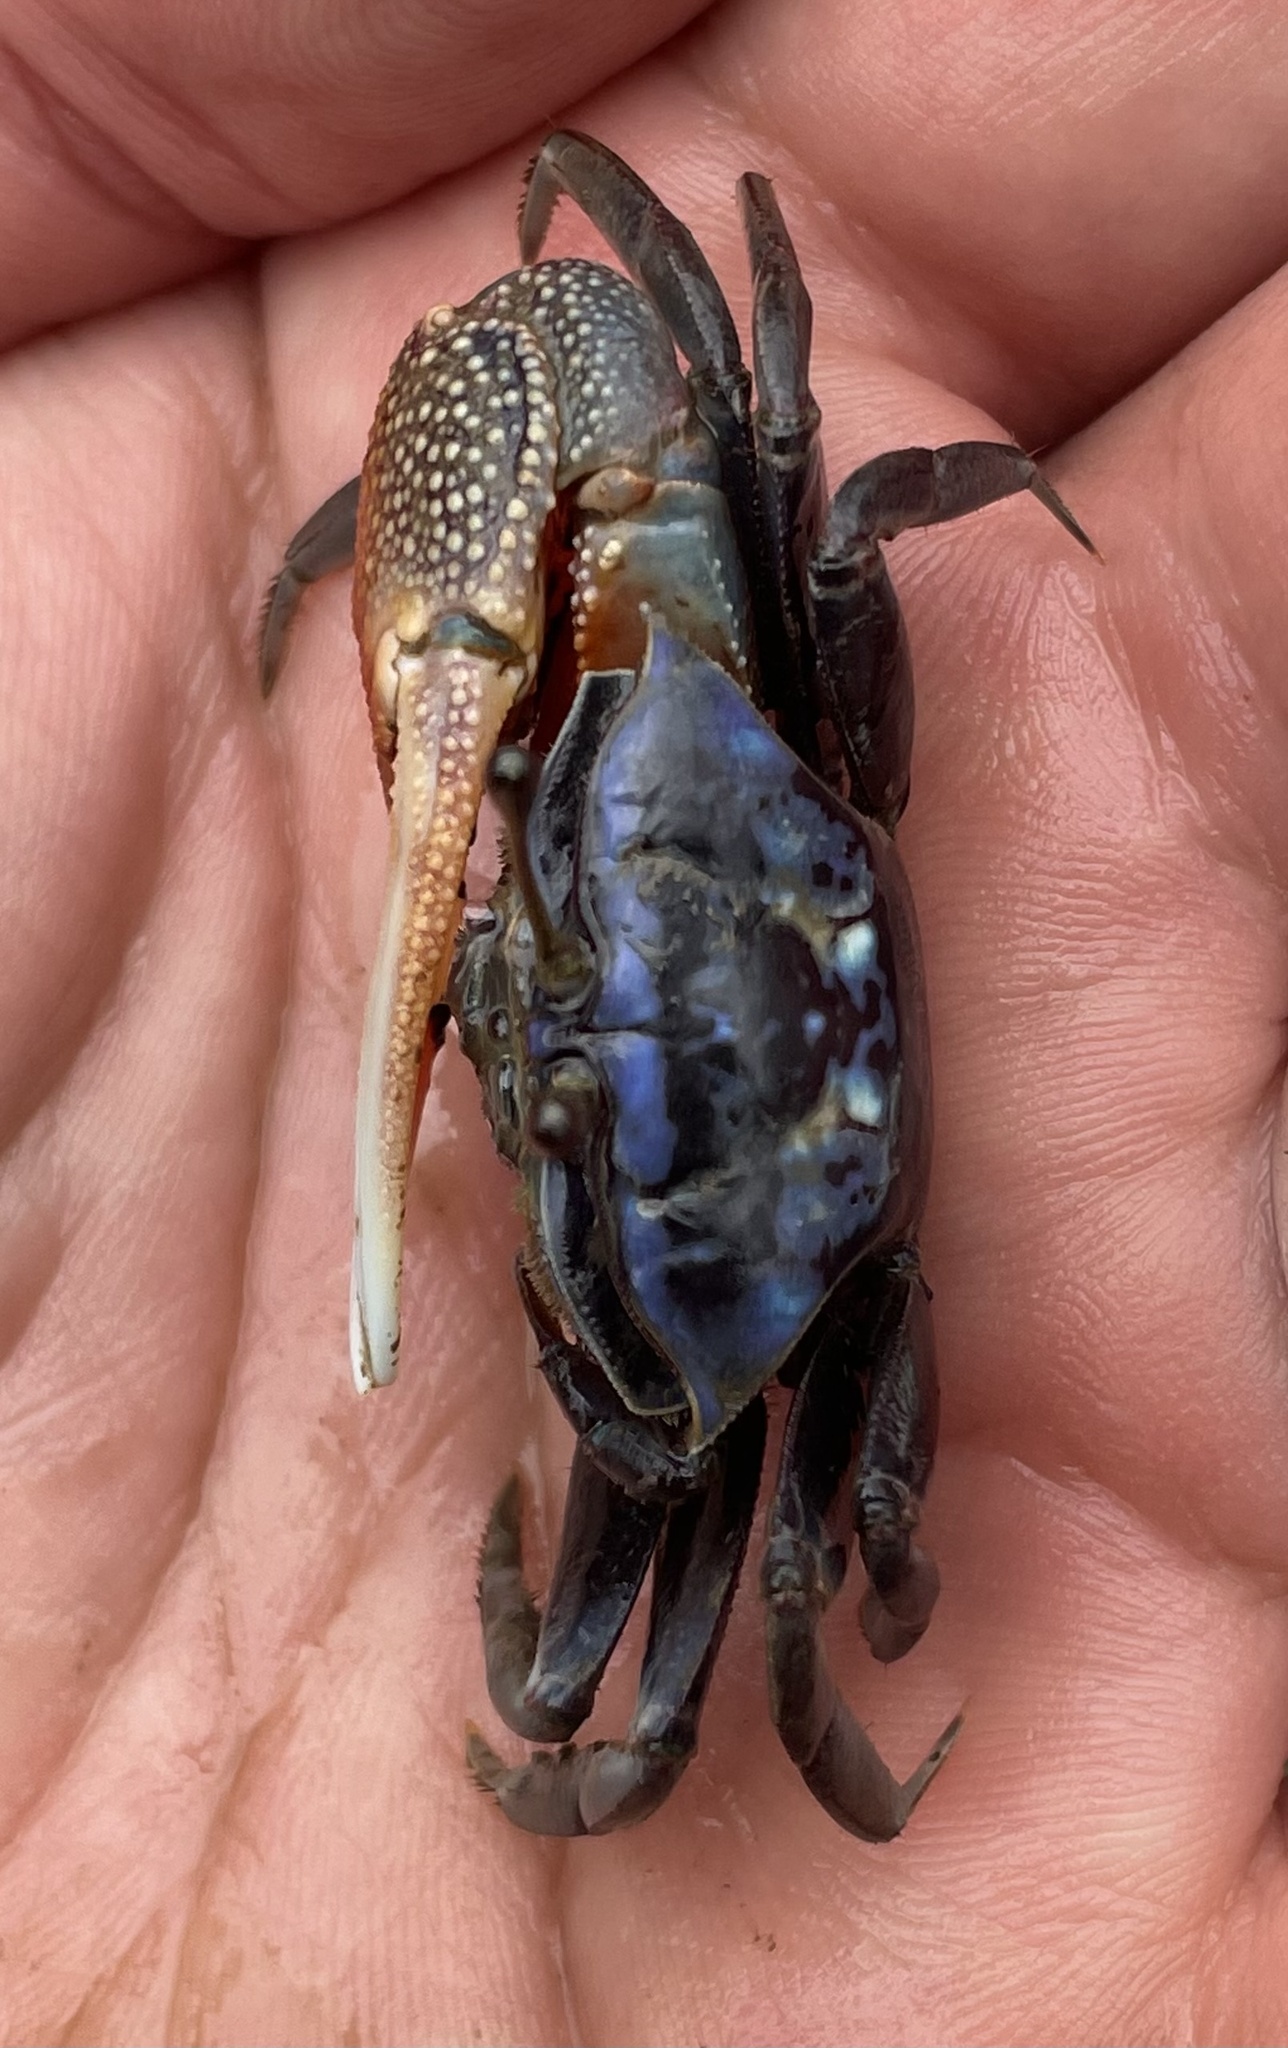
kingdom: Animalia
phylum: Arthropoda
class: Malacostraca
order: Decapoda
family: Ocypodidae
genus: Tubuca
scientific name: Tubuca urvillei
